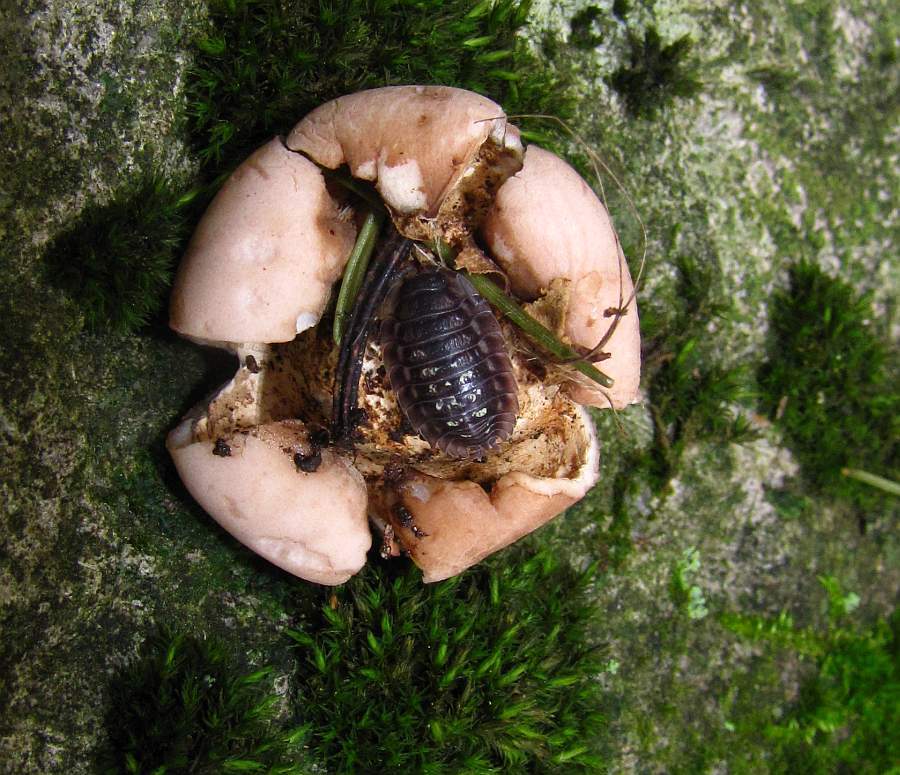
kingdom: Animalia
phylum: Arthropoda
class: Malacostraca
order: Isopoda
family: Oniscidae
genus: Oniscus
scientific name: Oniscus asellus
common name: Common shiny woodlouse
